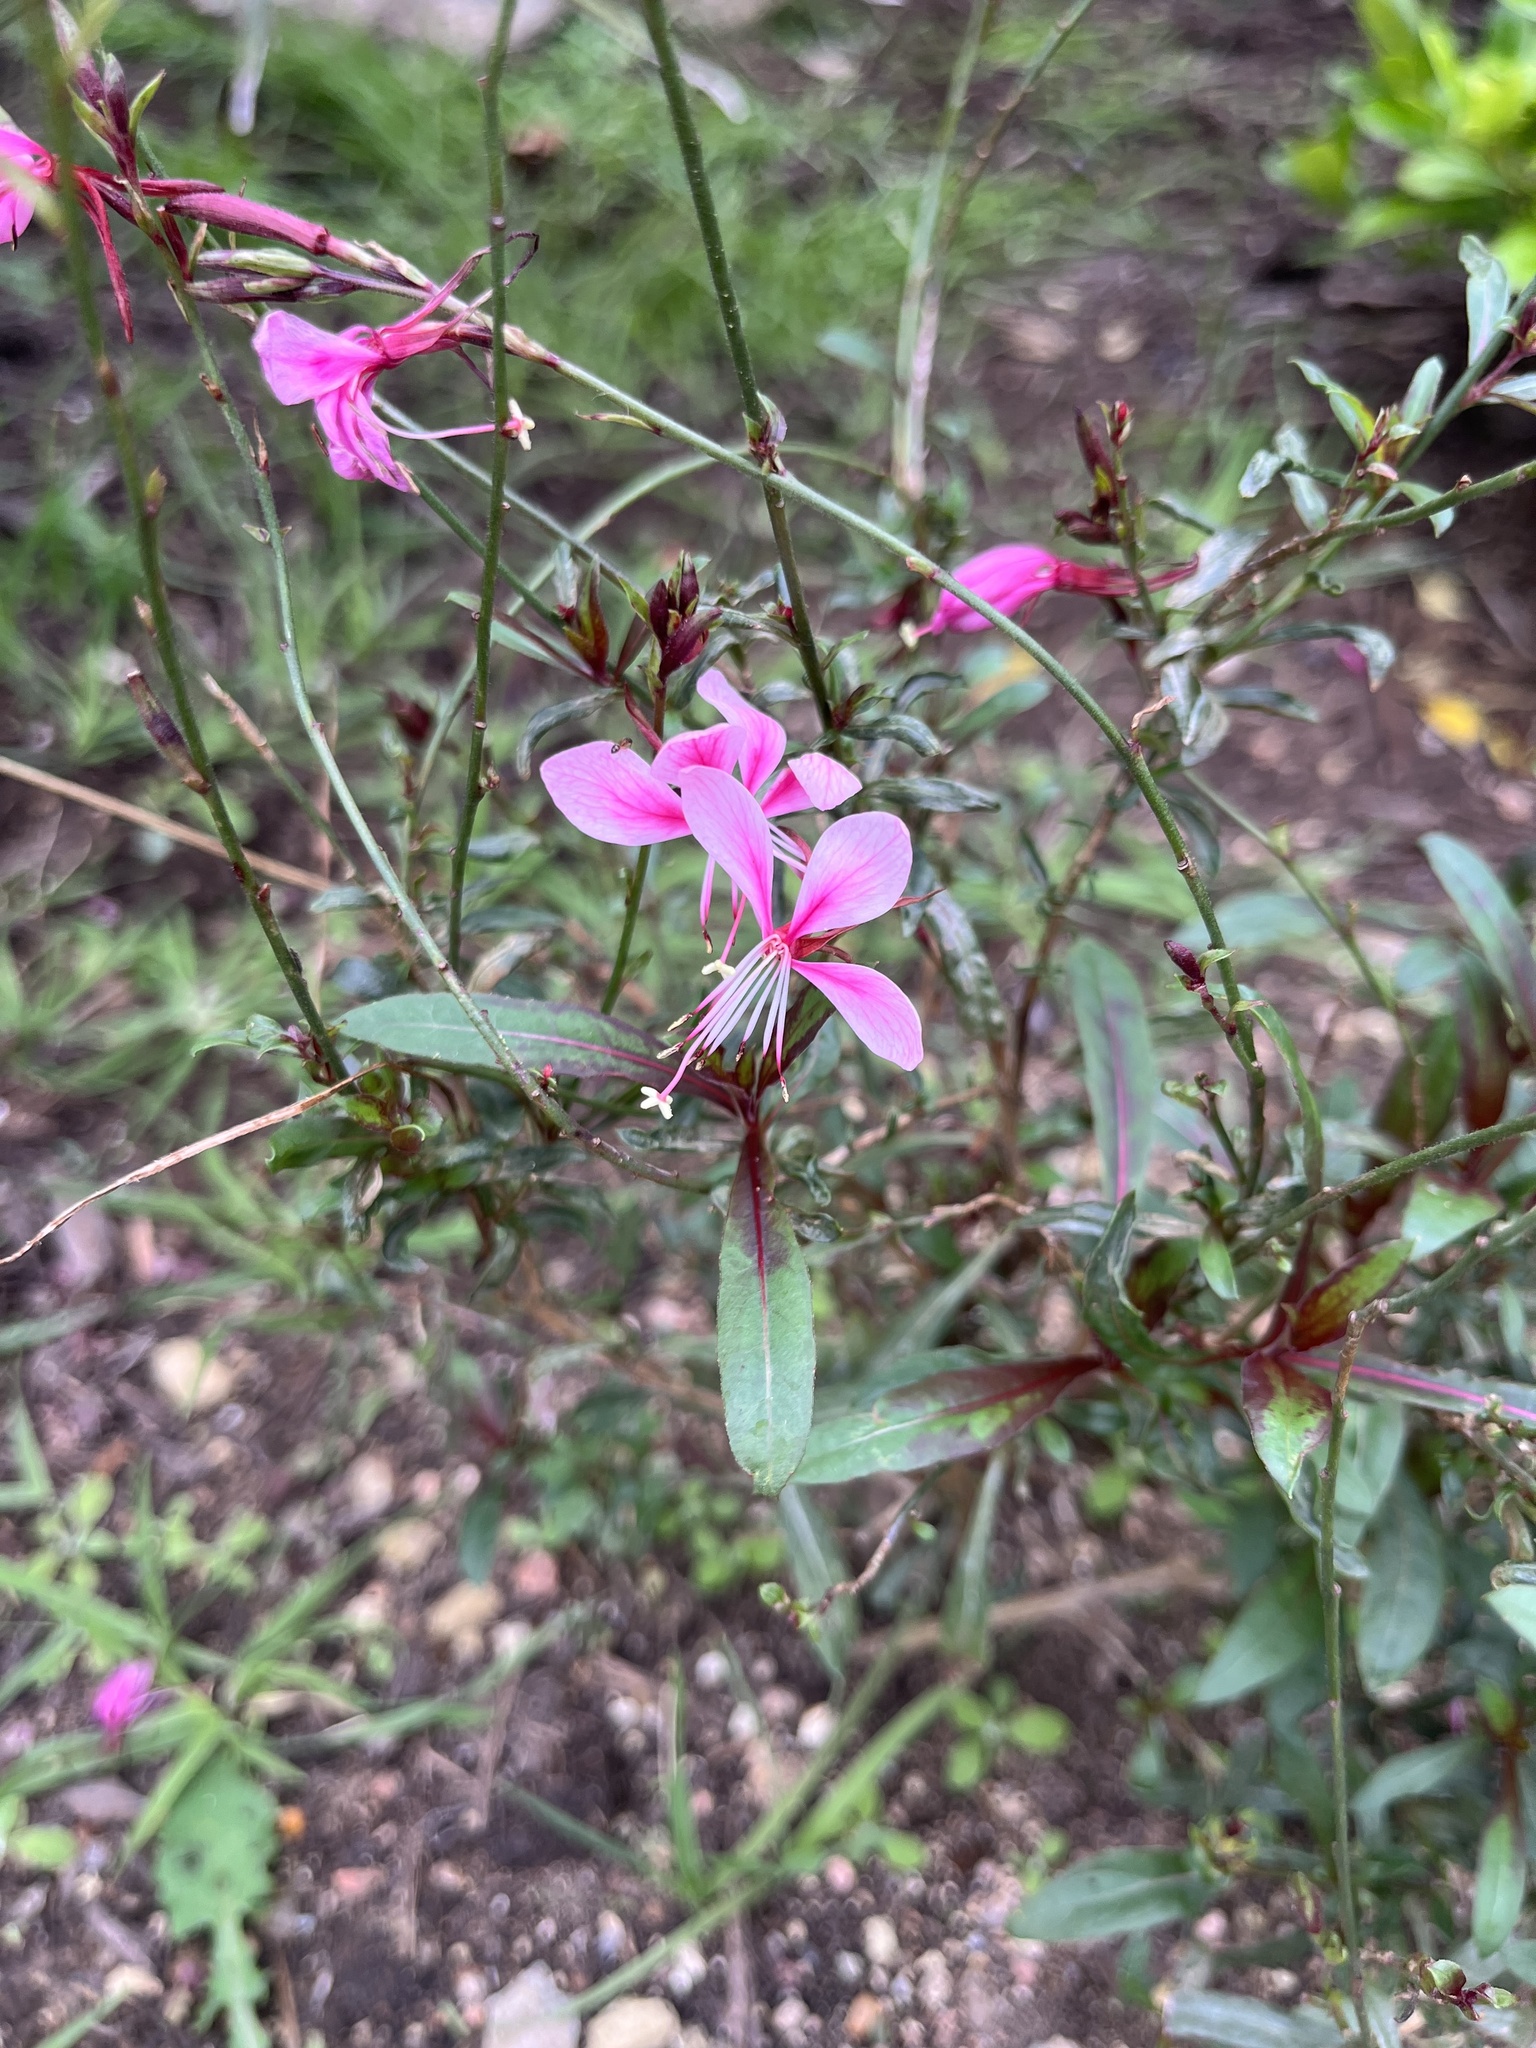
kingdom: Plantae
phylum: Tracheophyta
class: Magnoliopsida
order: Myrtales
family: Onagraceae
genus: Oenothera
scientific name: Oenothera lindheimeri
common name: Lindheimer's beeblossom
